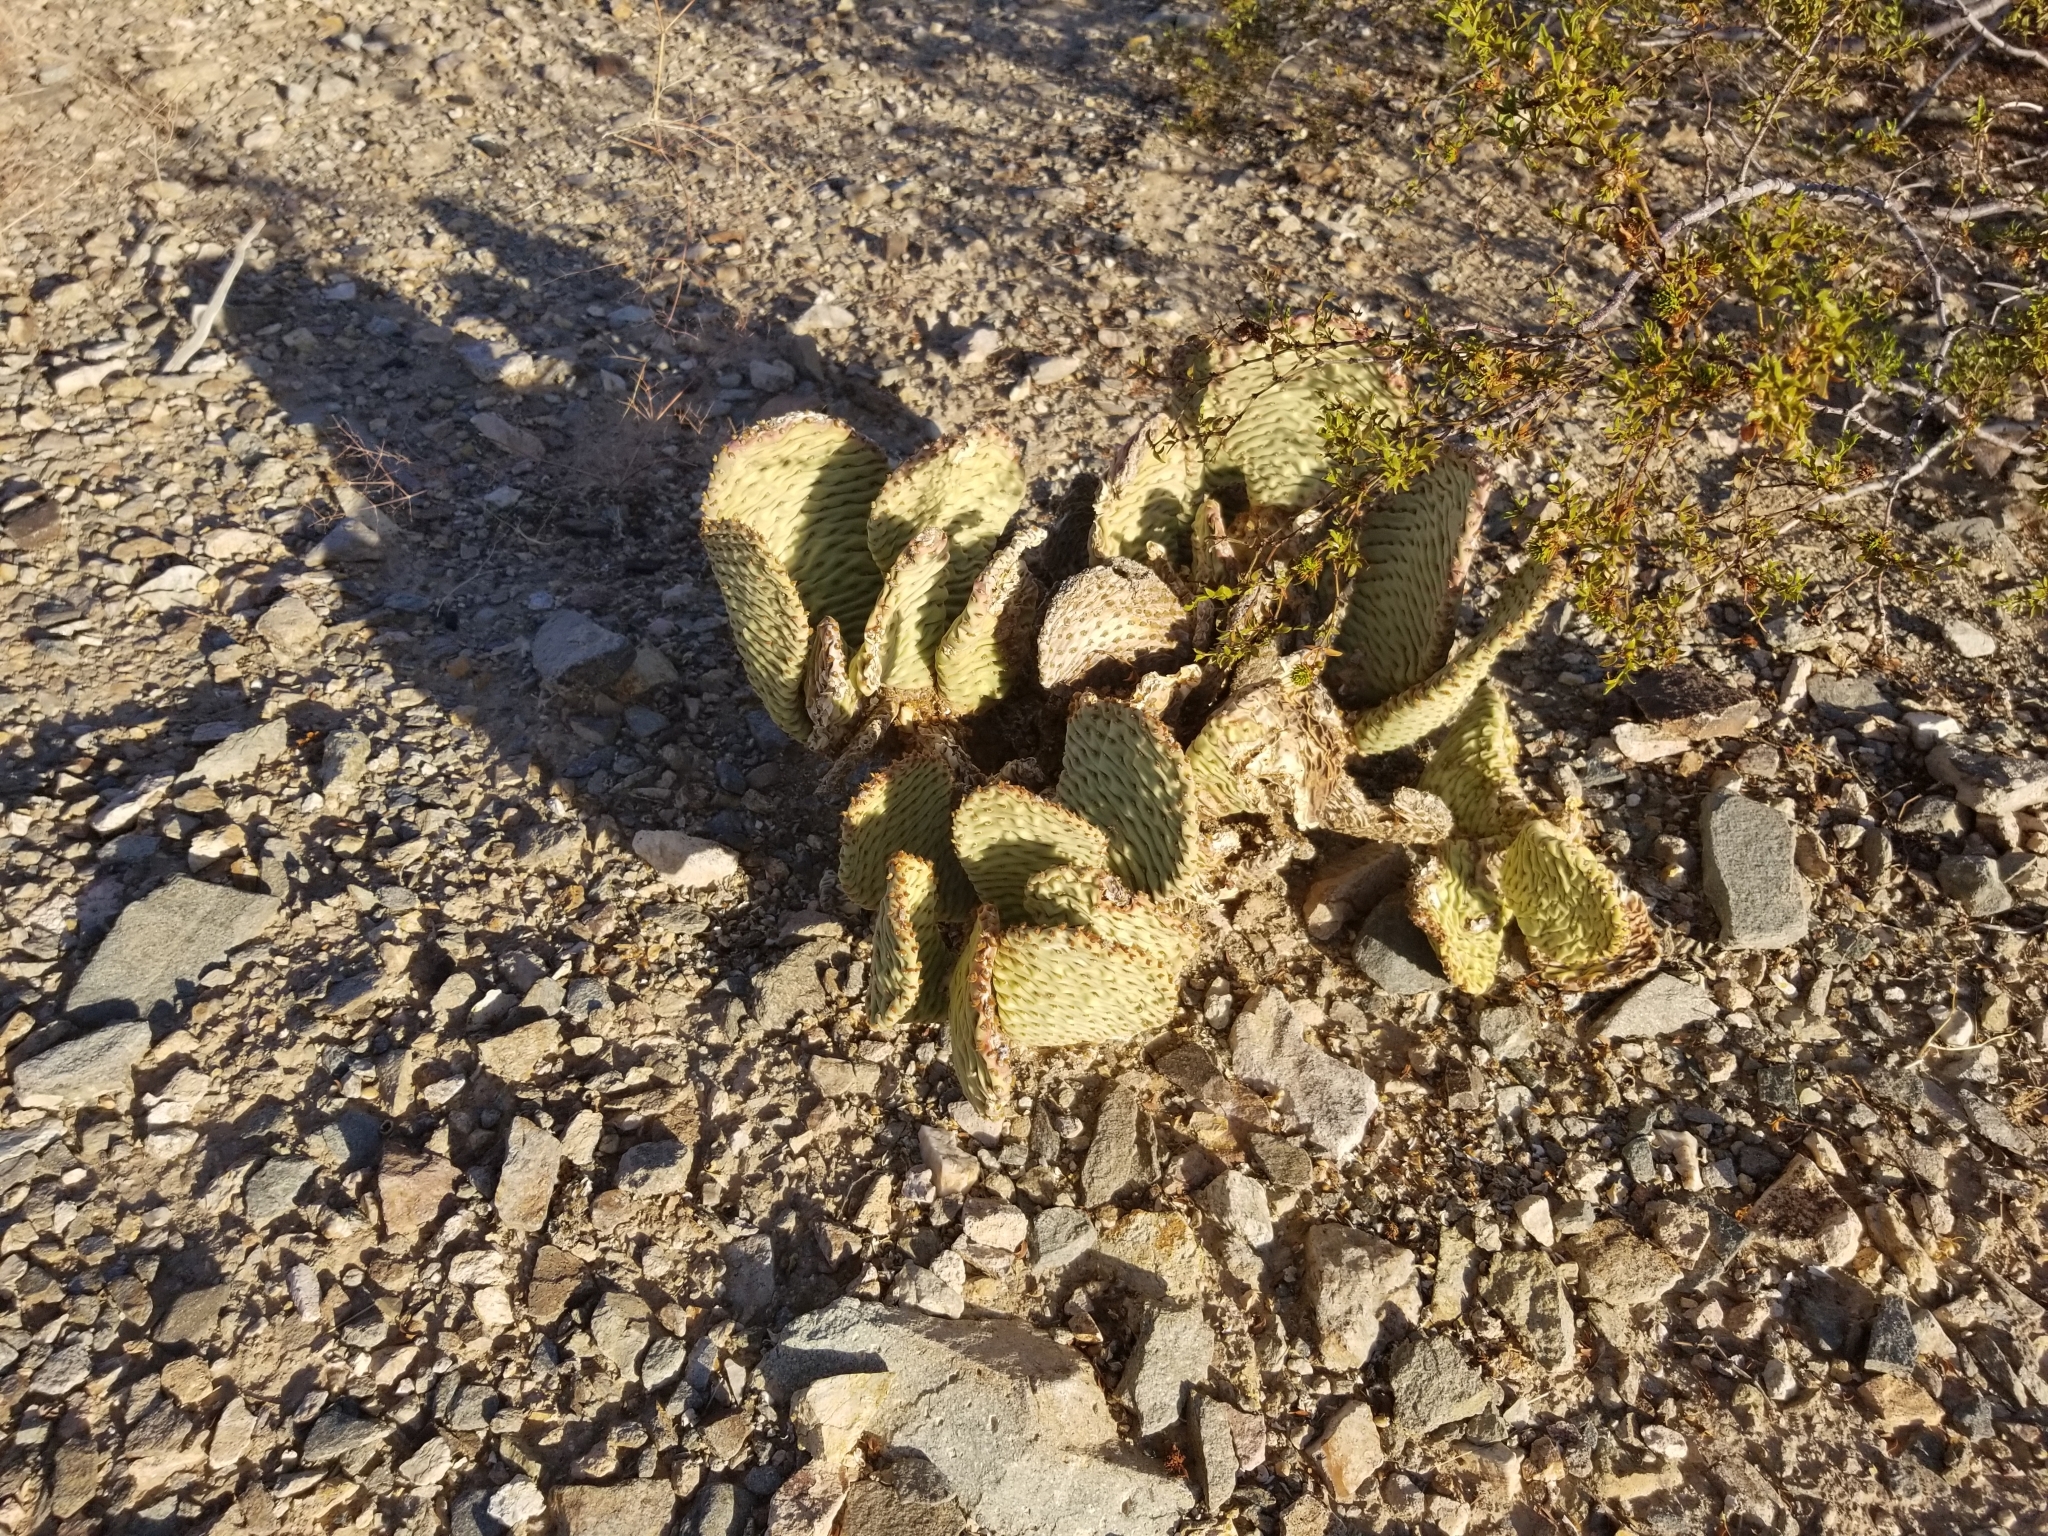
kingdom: Plantae
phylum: Tracheophyta
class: Magnoliopsida
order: Caryophyllales
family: Cactaceae
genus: Opuntia
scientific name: Opuntia basilaris
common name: Beavertail prickly-pear
